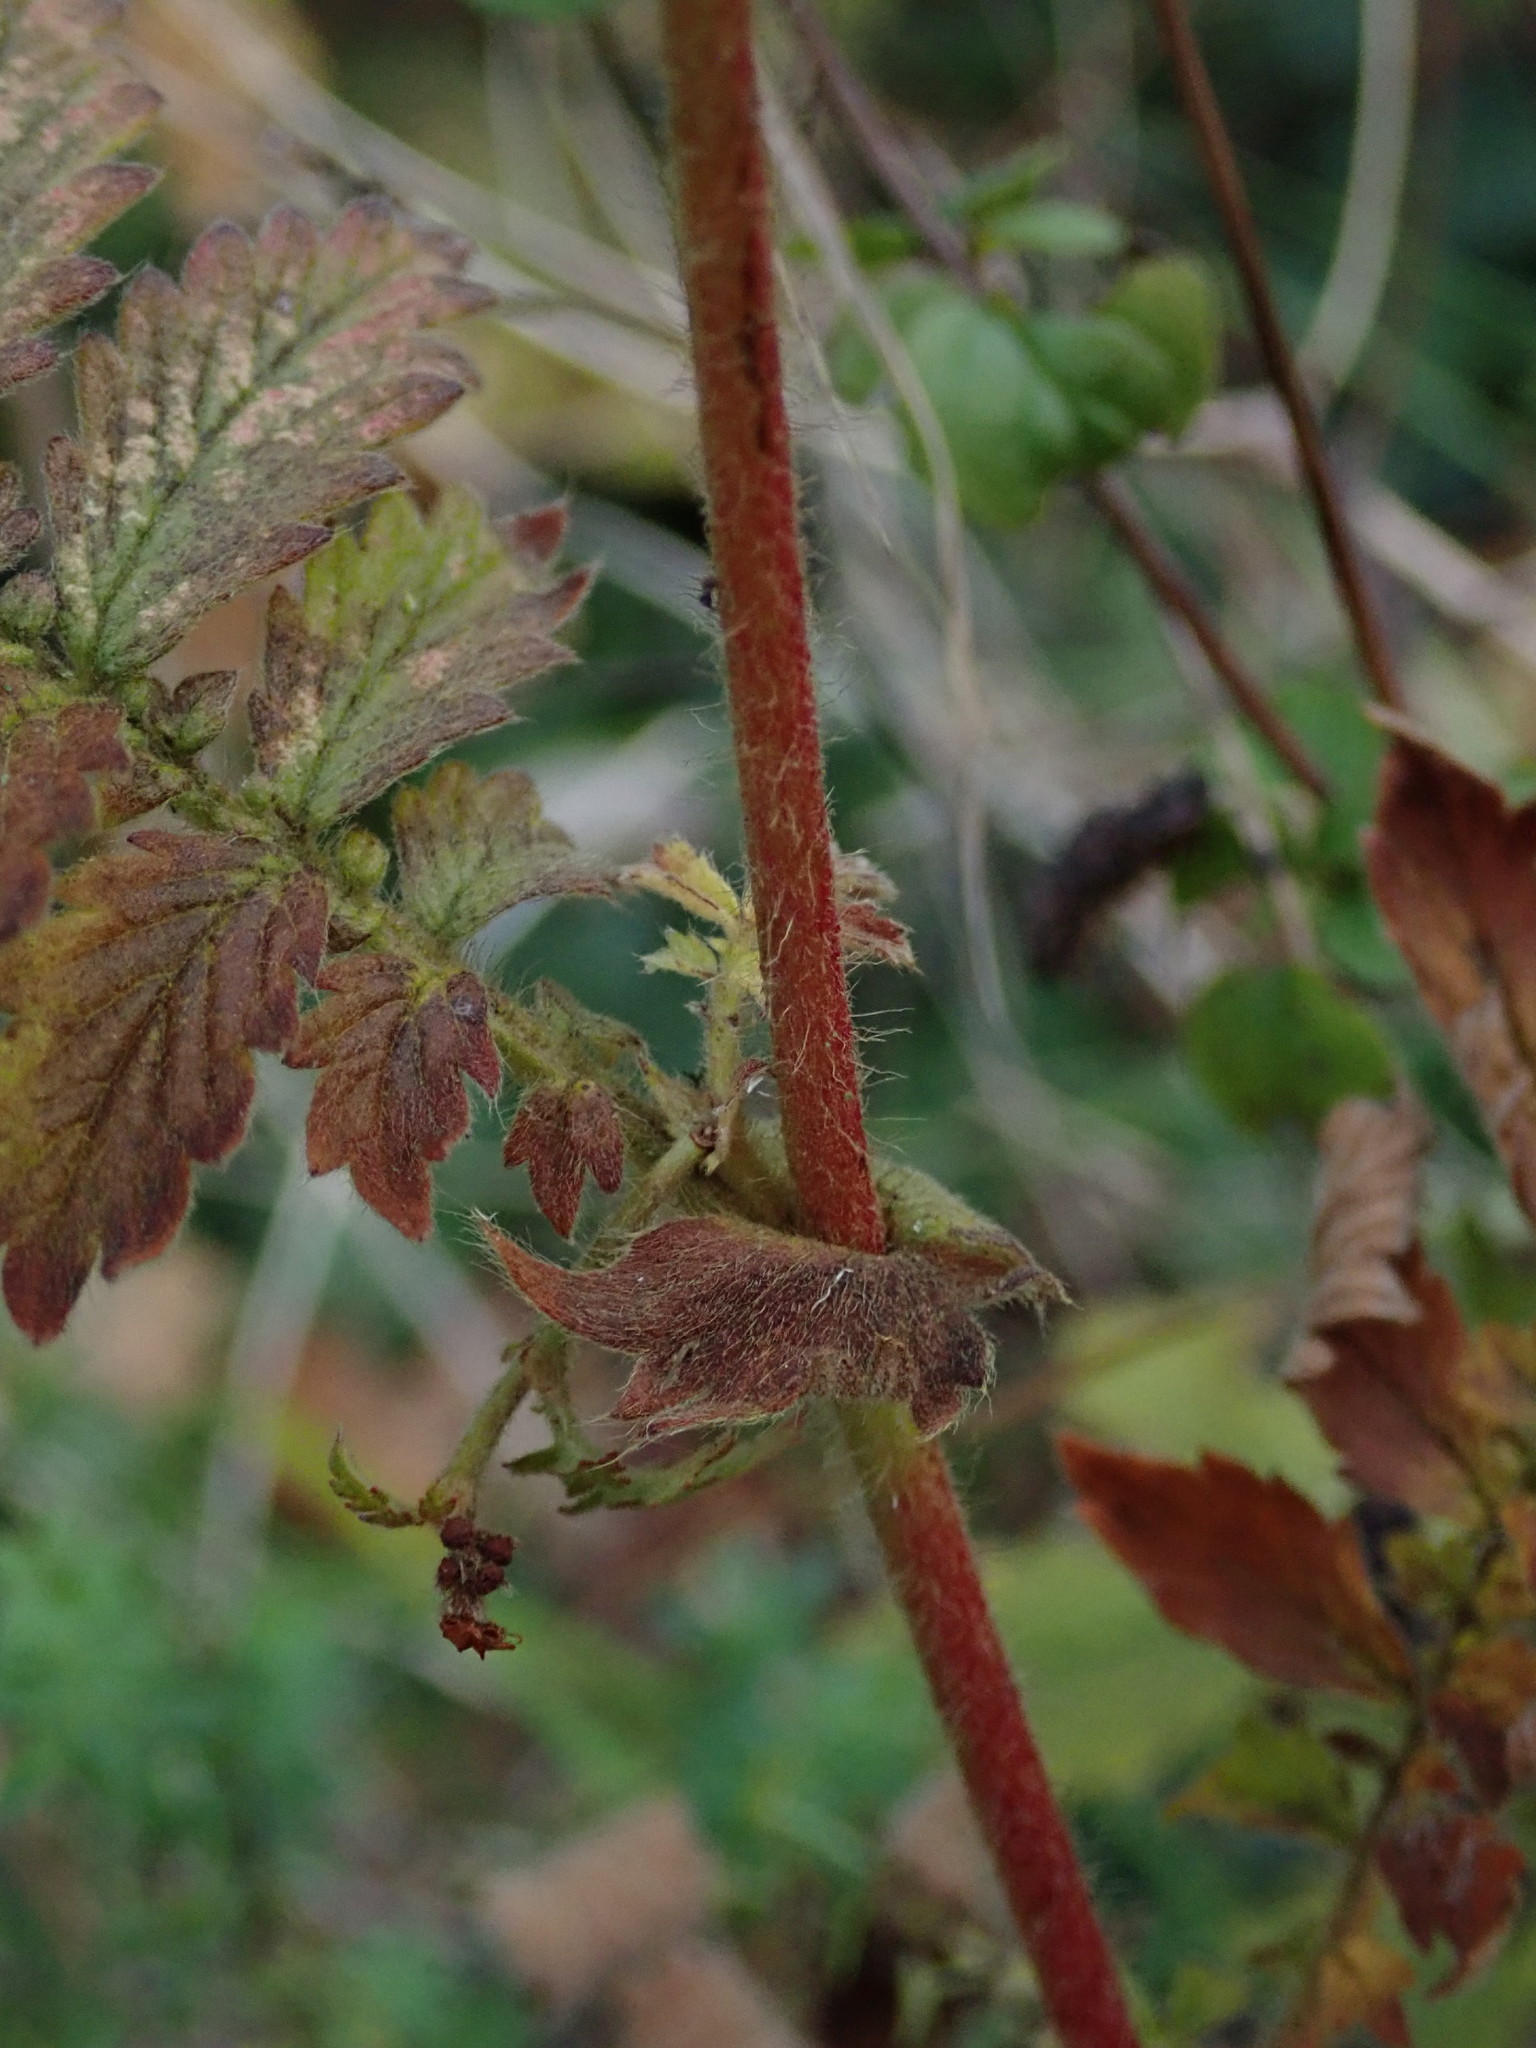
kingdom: Plantae
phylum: Tracheophyta
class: Magnoliopsida
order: Rosales
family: Rosaceae
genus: Agrimonia
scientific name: Agrimonia eupatoria
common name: Agrimony
